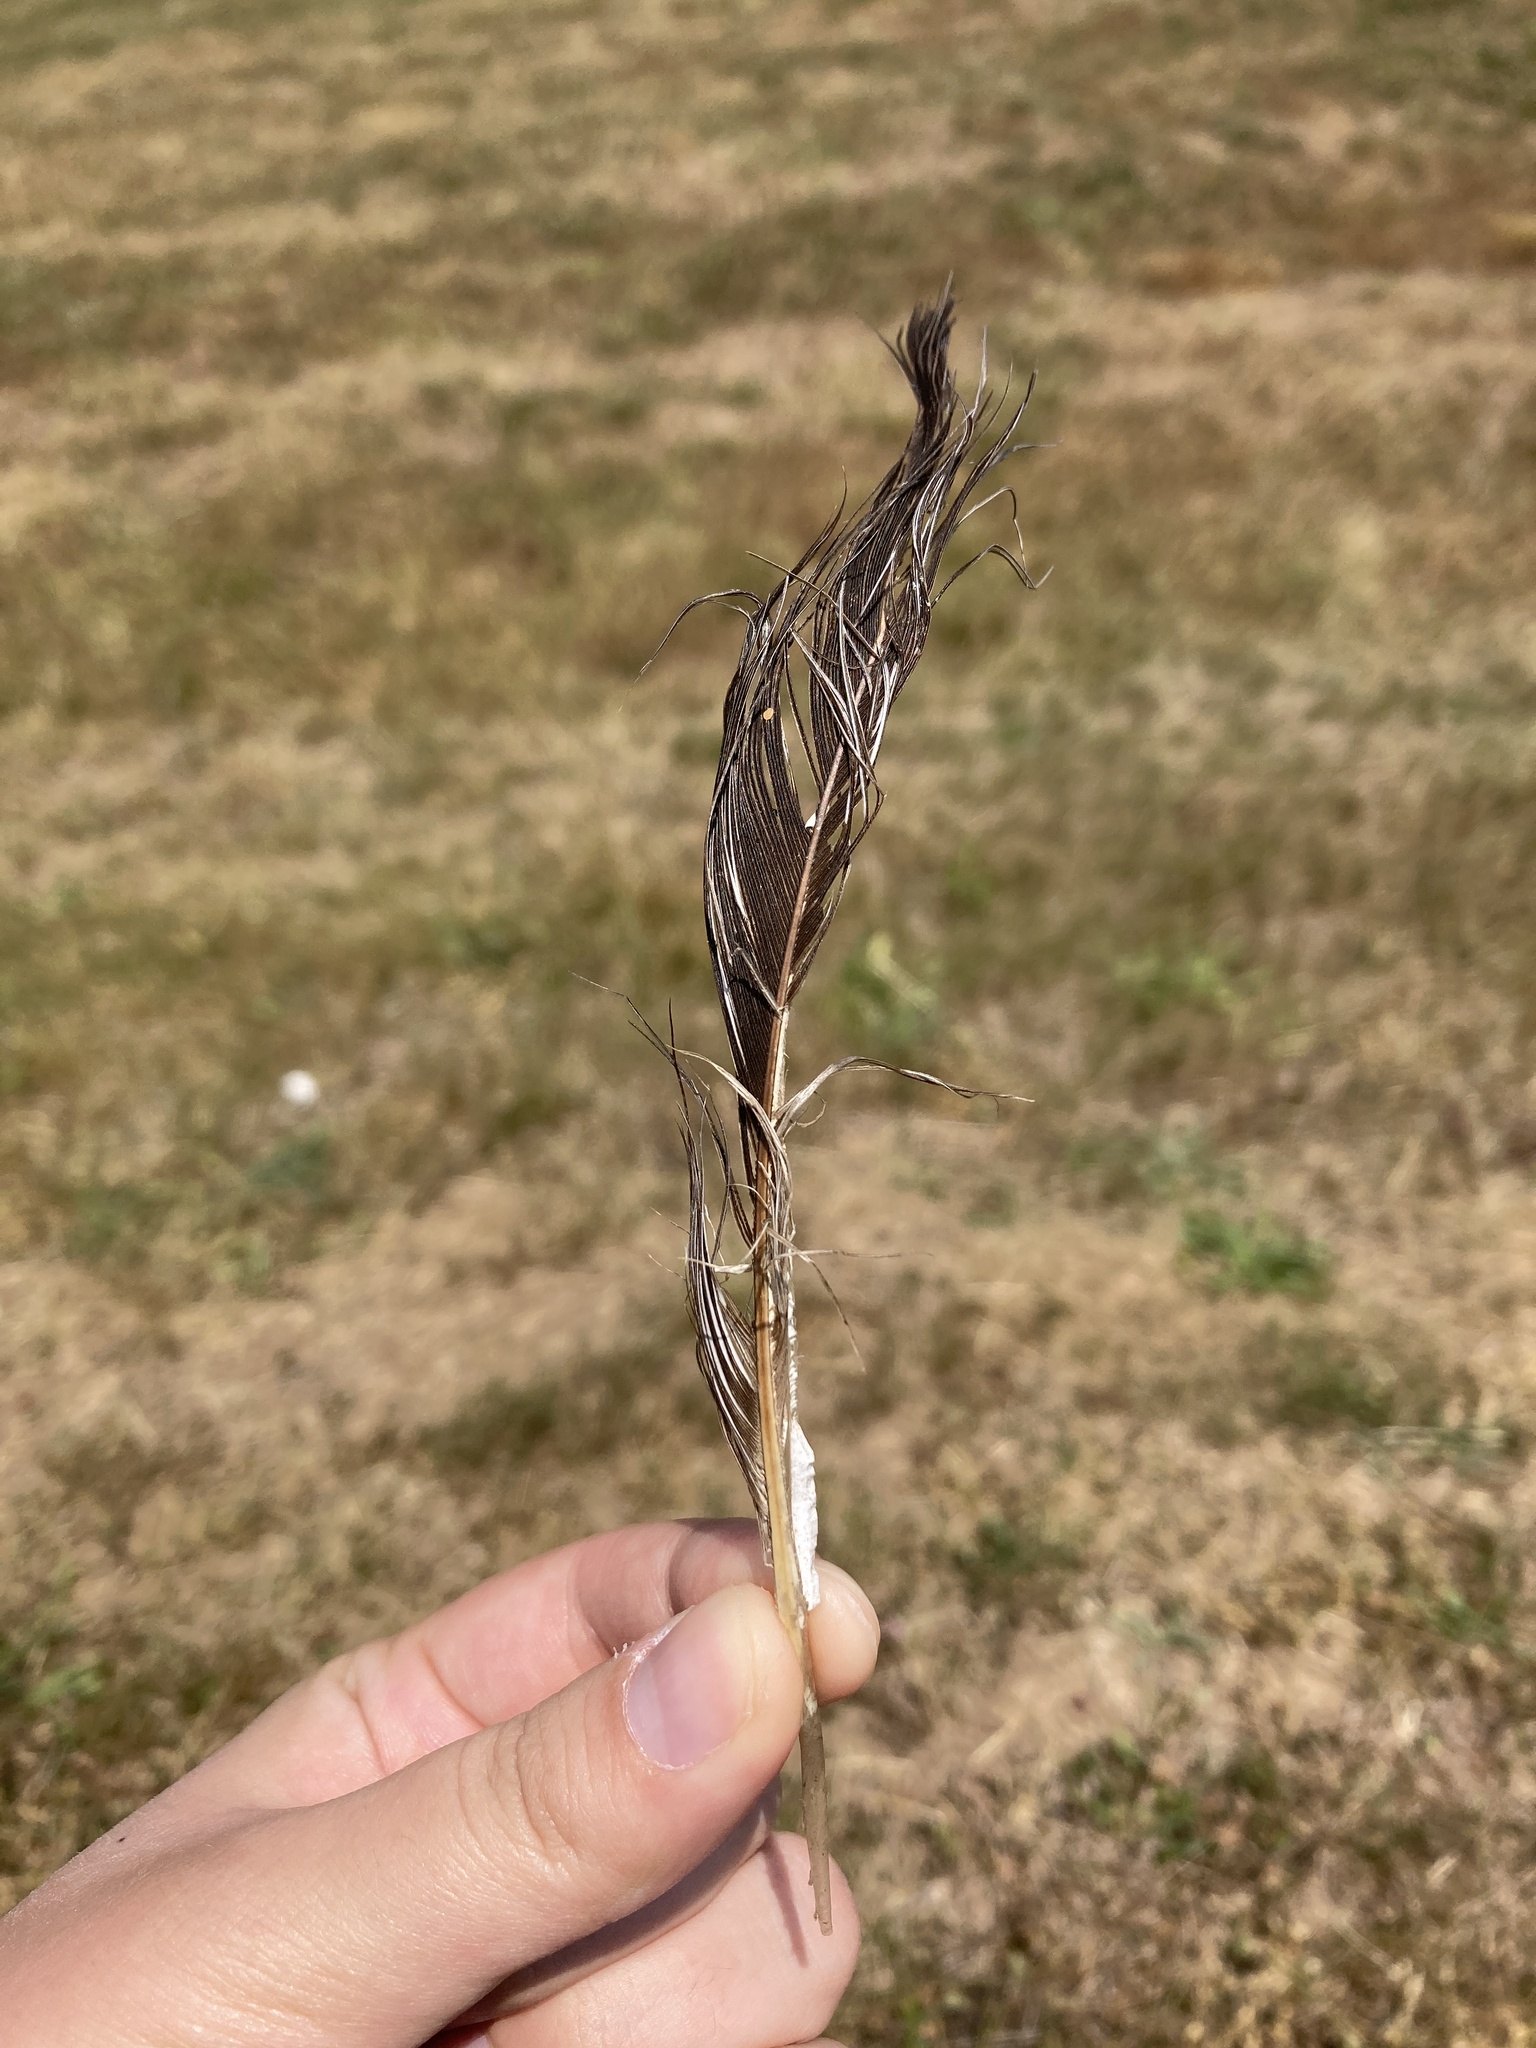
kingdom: Animalia
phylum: Chordata
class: Aves
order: Accipitriformes
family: Cathartidae
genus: Cathartes
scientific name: Cathartes aura
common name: Turkey vulture
